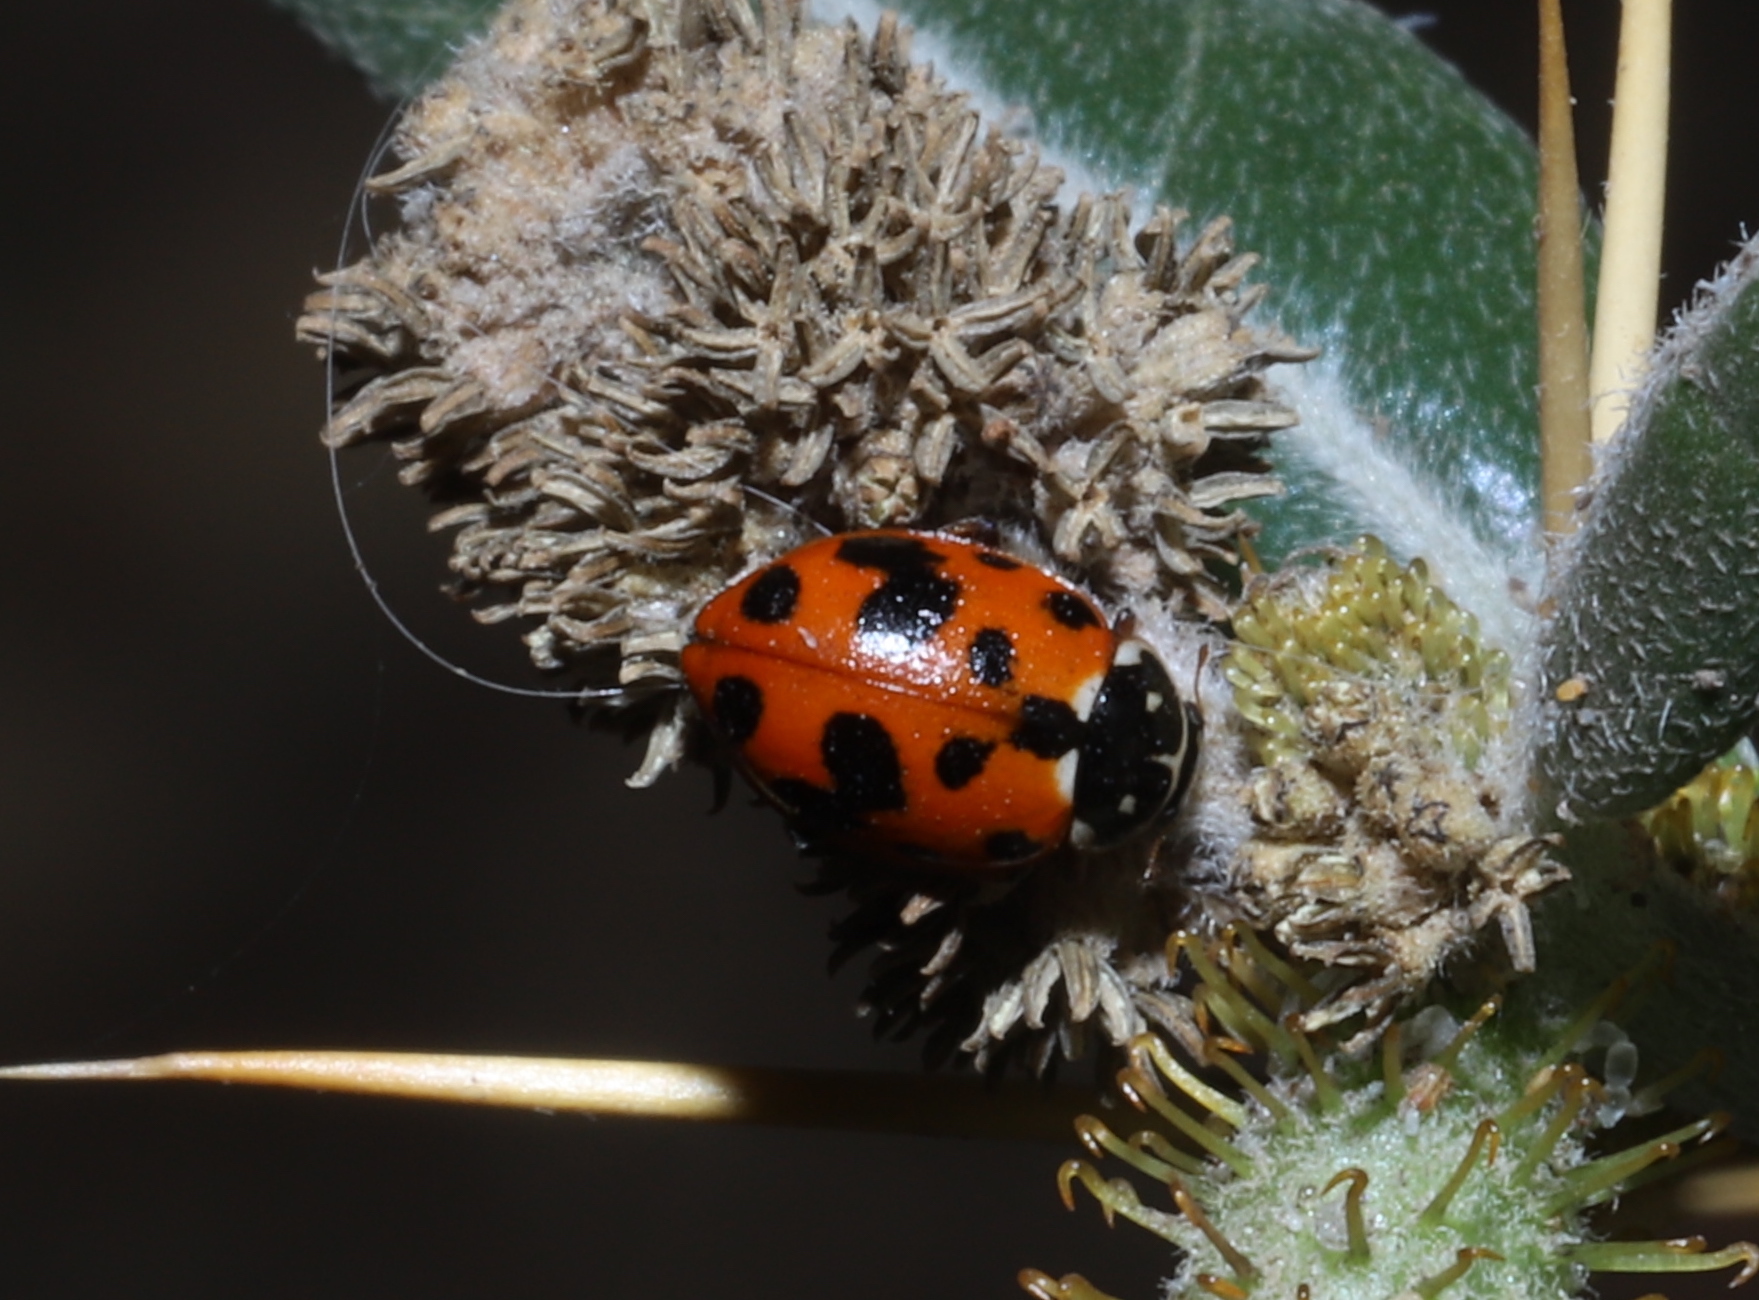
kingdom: Animalia
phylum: Arthropoda
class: Insecta
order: Coleoptera
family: Coccinellidae
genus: Hippodamia
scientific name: Hippodamia variegata
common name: Ladybird beetle
